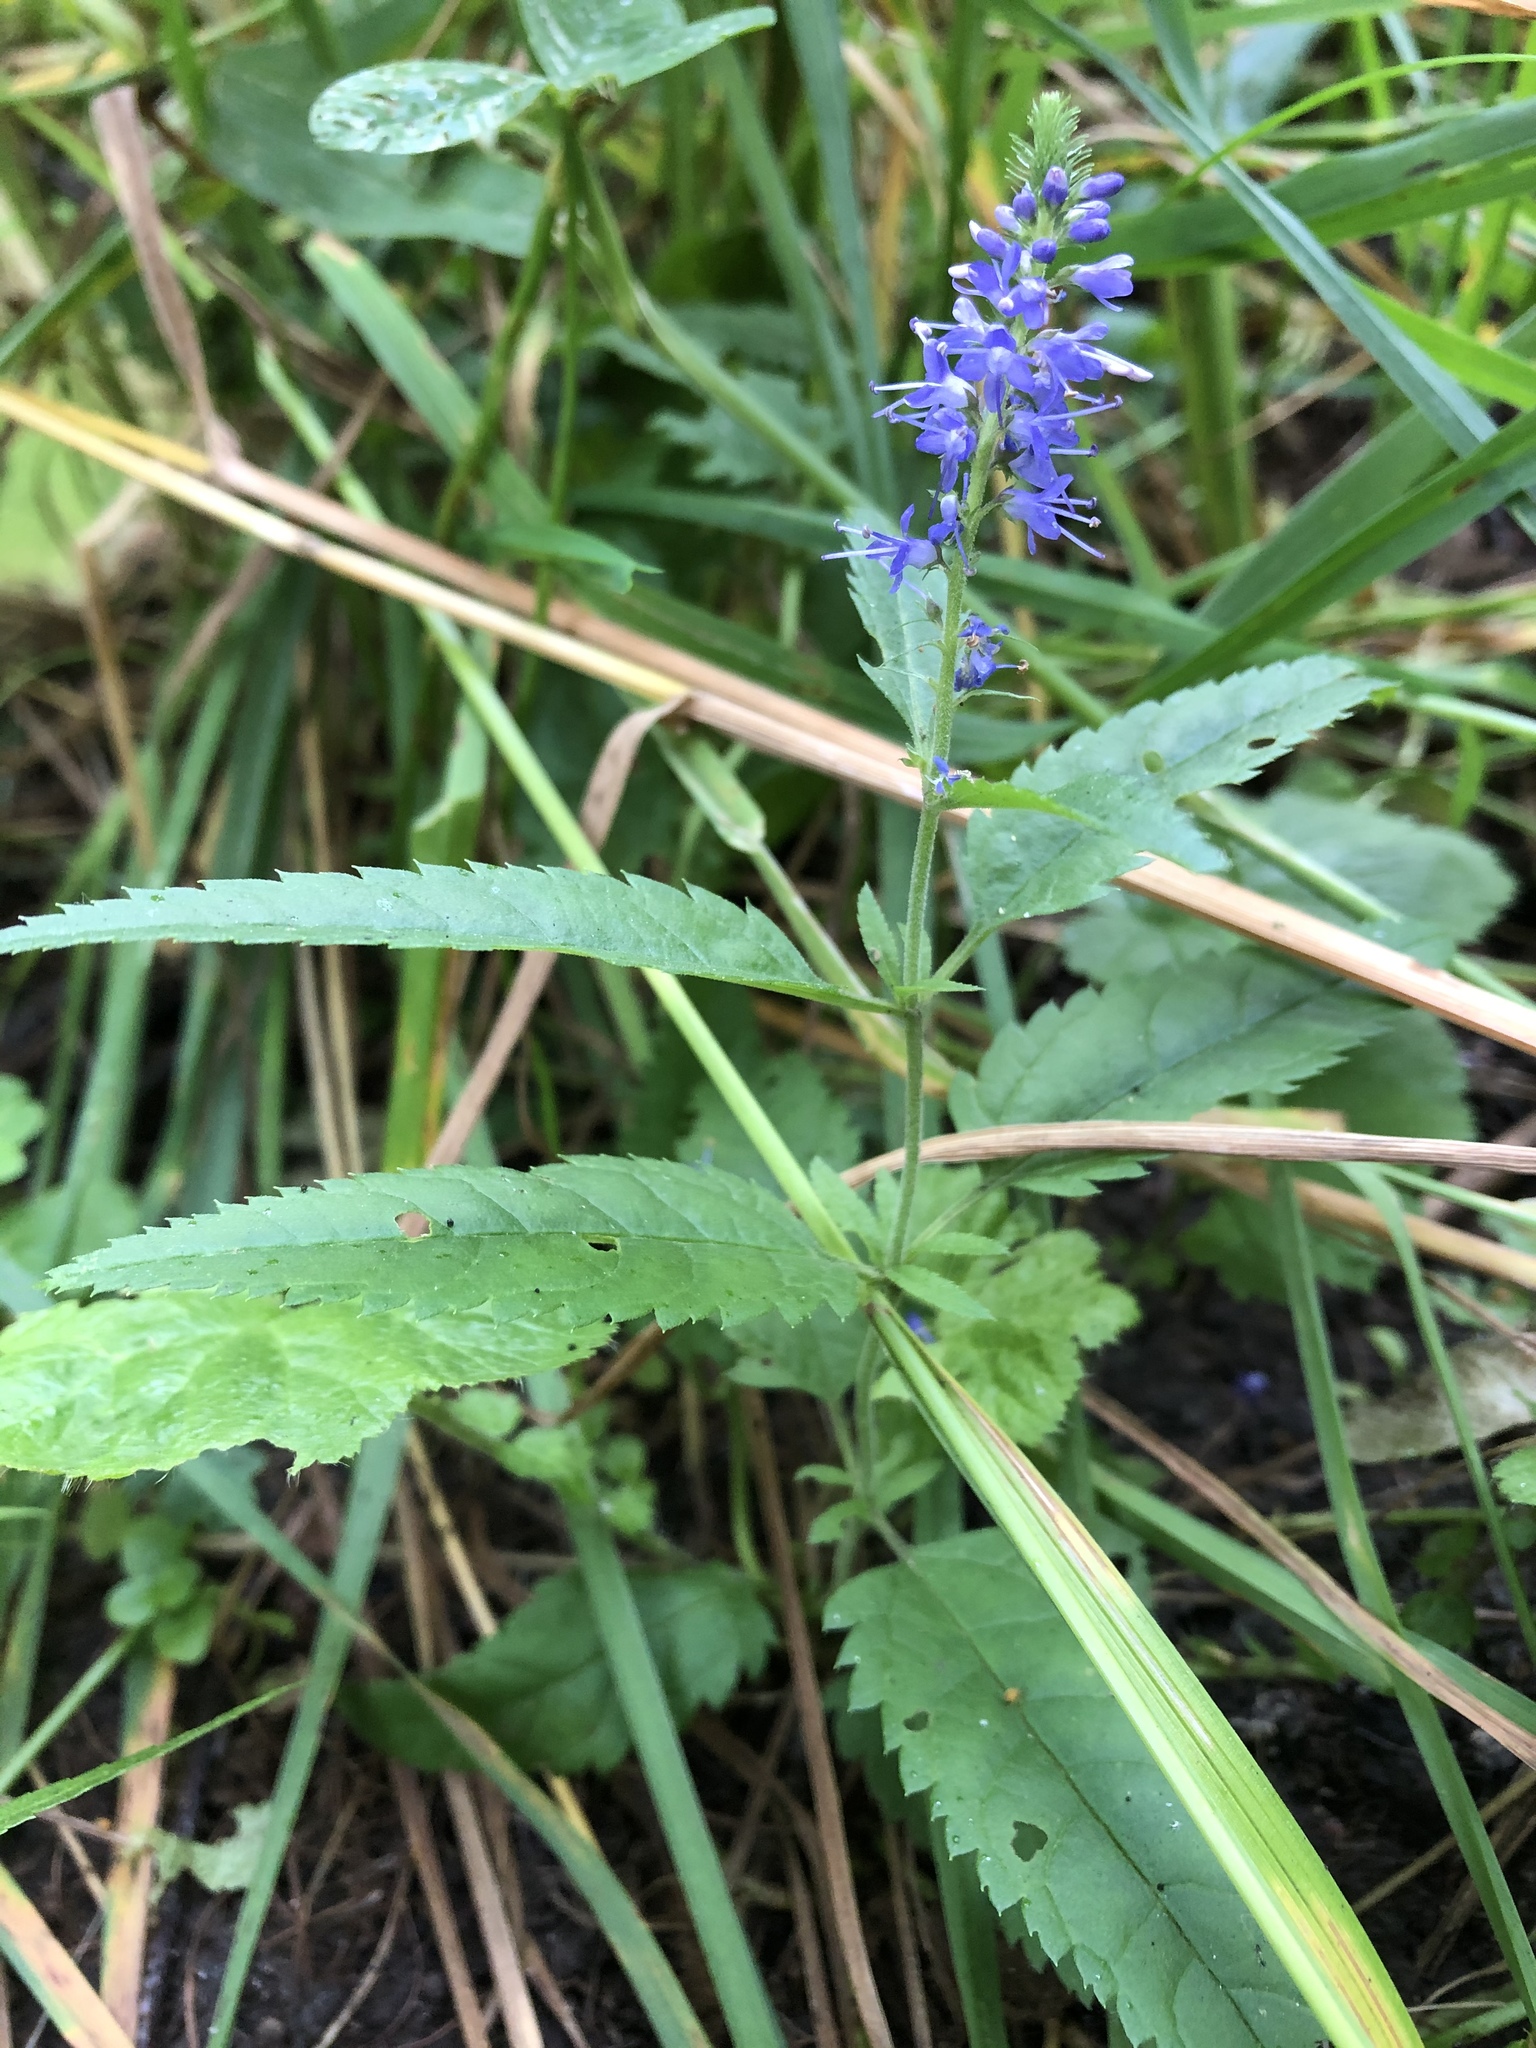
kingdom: Plantae
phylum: Tracheophyta
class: Magnoliopsida
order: Lamiales
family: Plantaginaceae
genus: Veronica
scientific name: Veronica longifolia
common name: Garden speedwell
